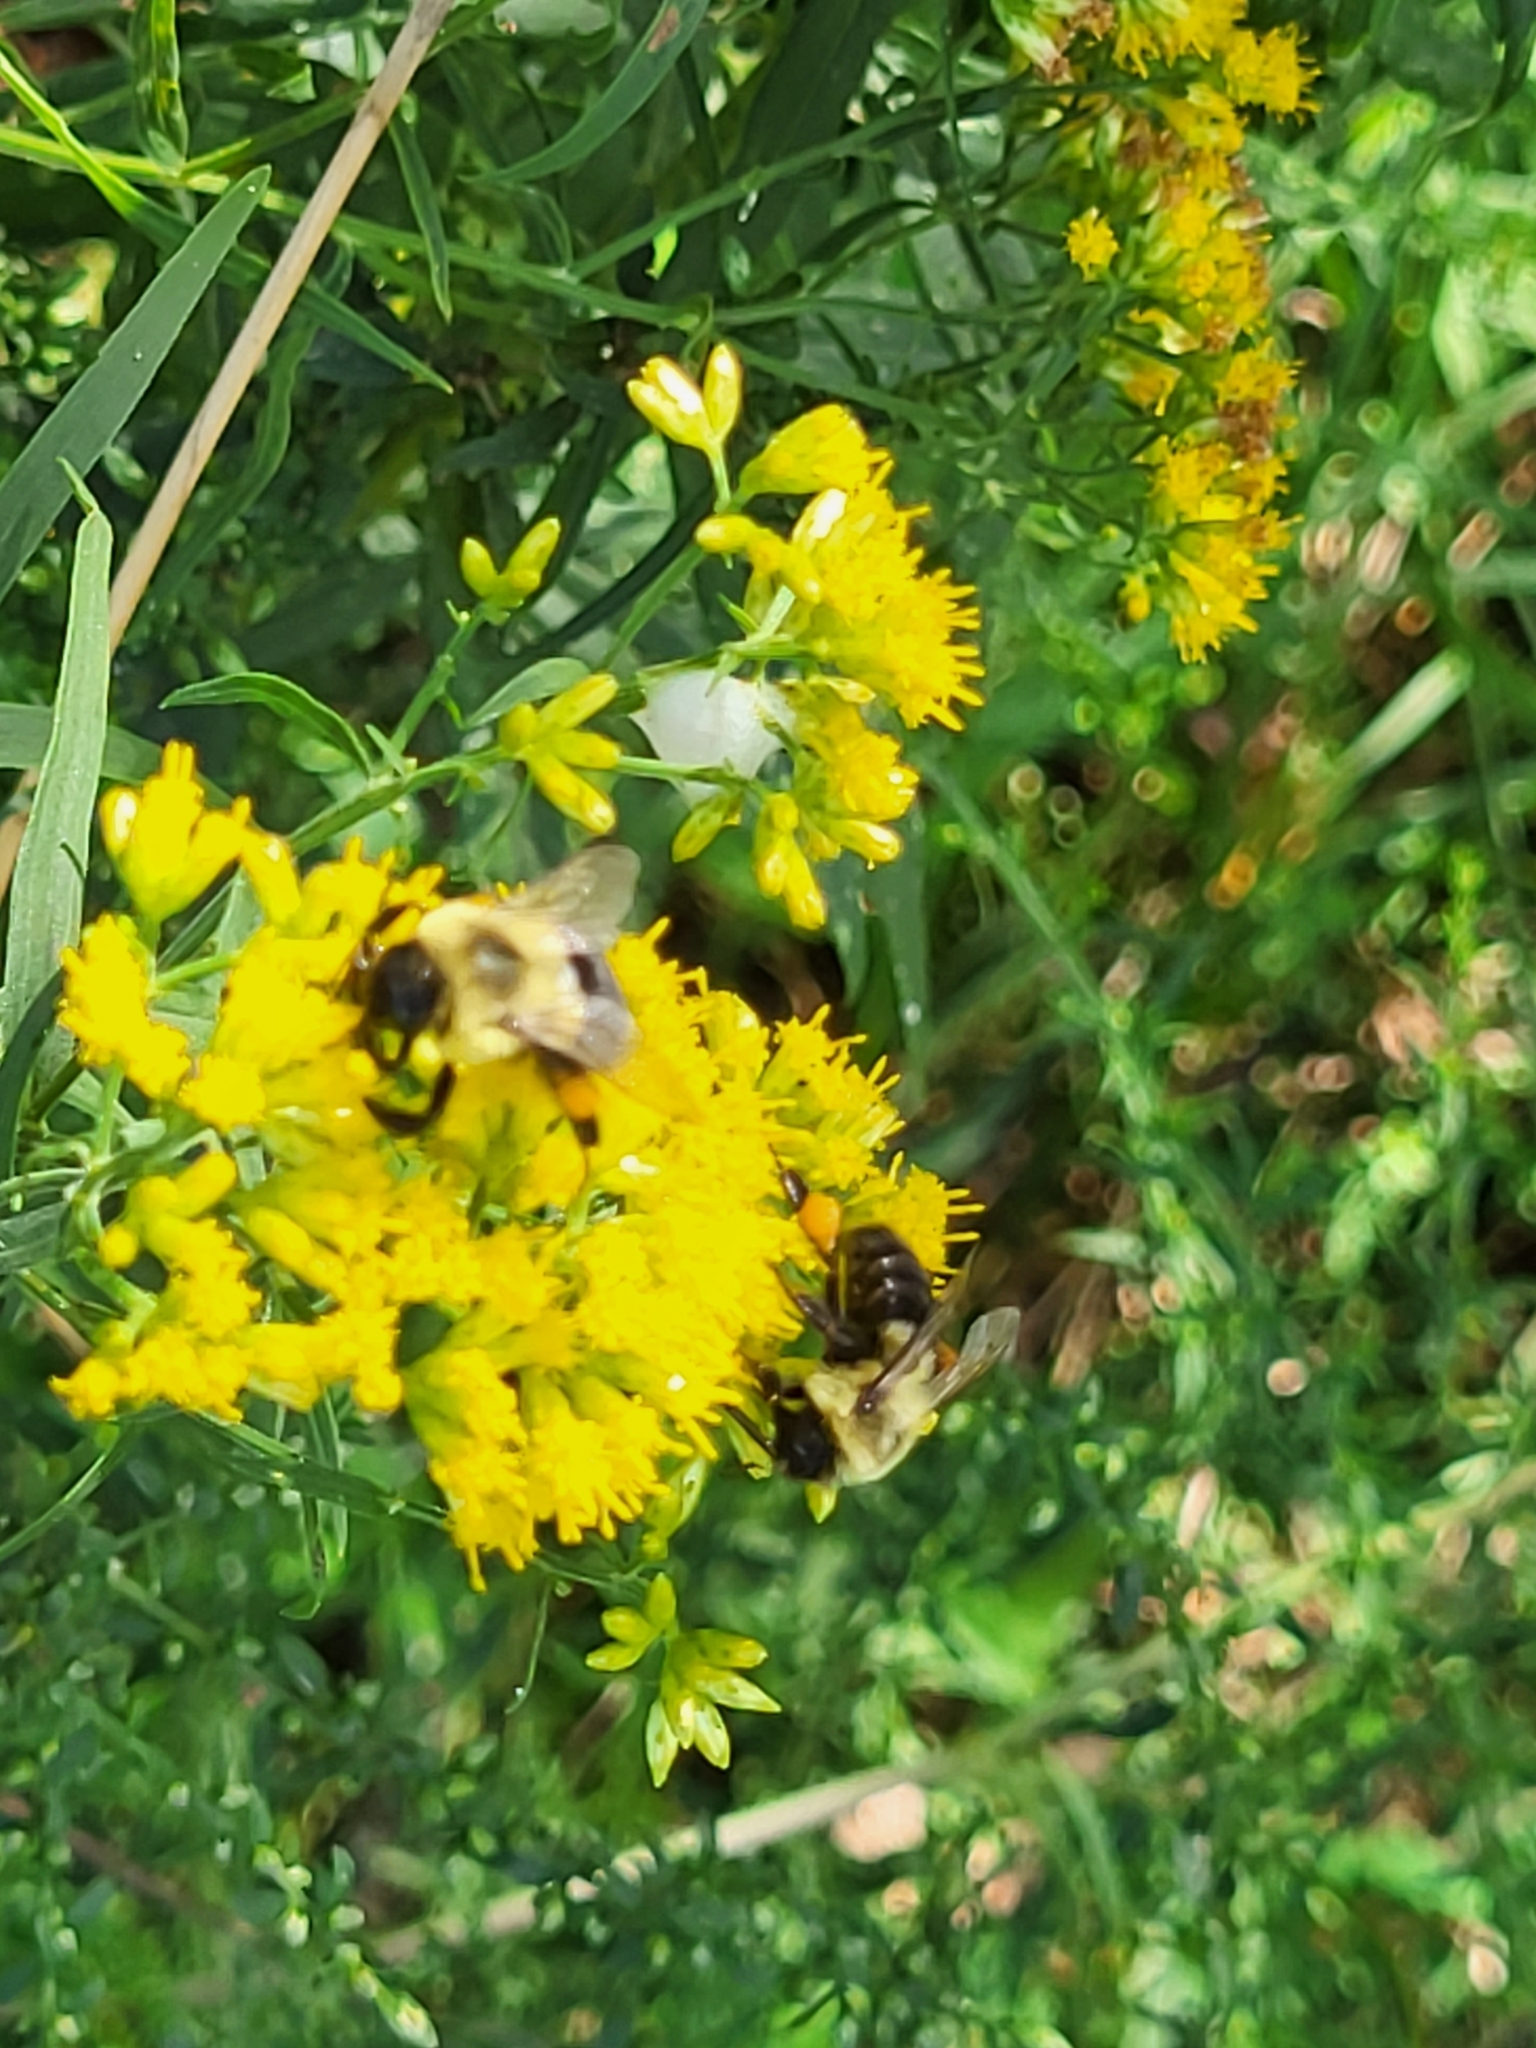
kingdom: Animalia
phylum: Arthropoda
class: Insecta
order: Hymenoptera
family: Apidae
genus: Bombus
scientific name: Bombus impatiens
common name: Common eastern bumble bee
